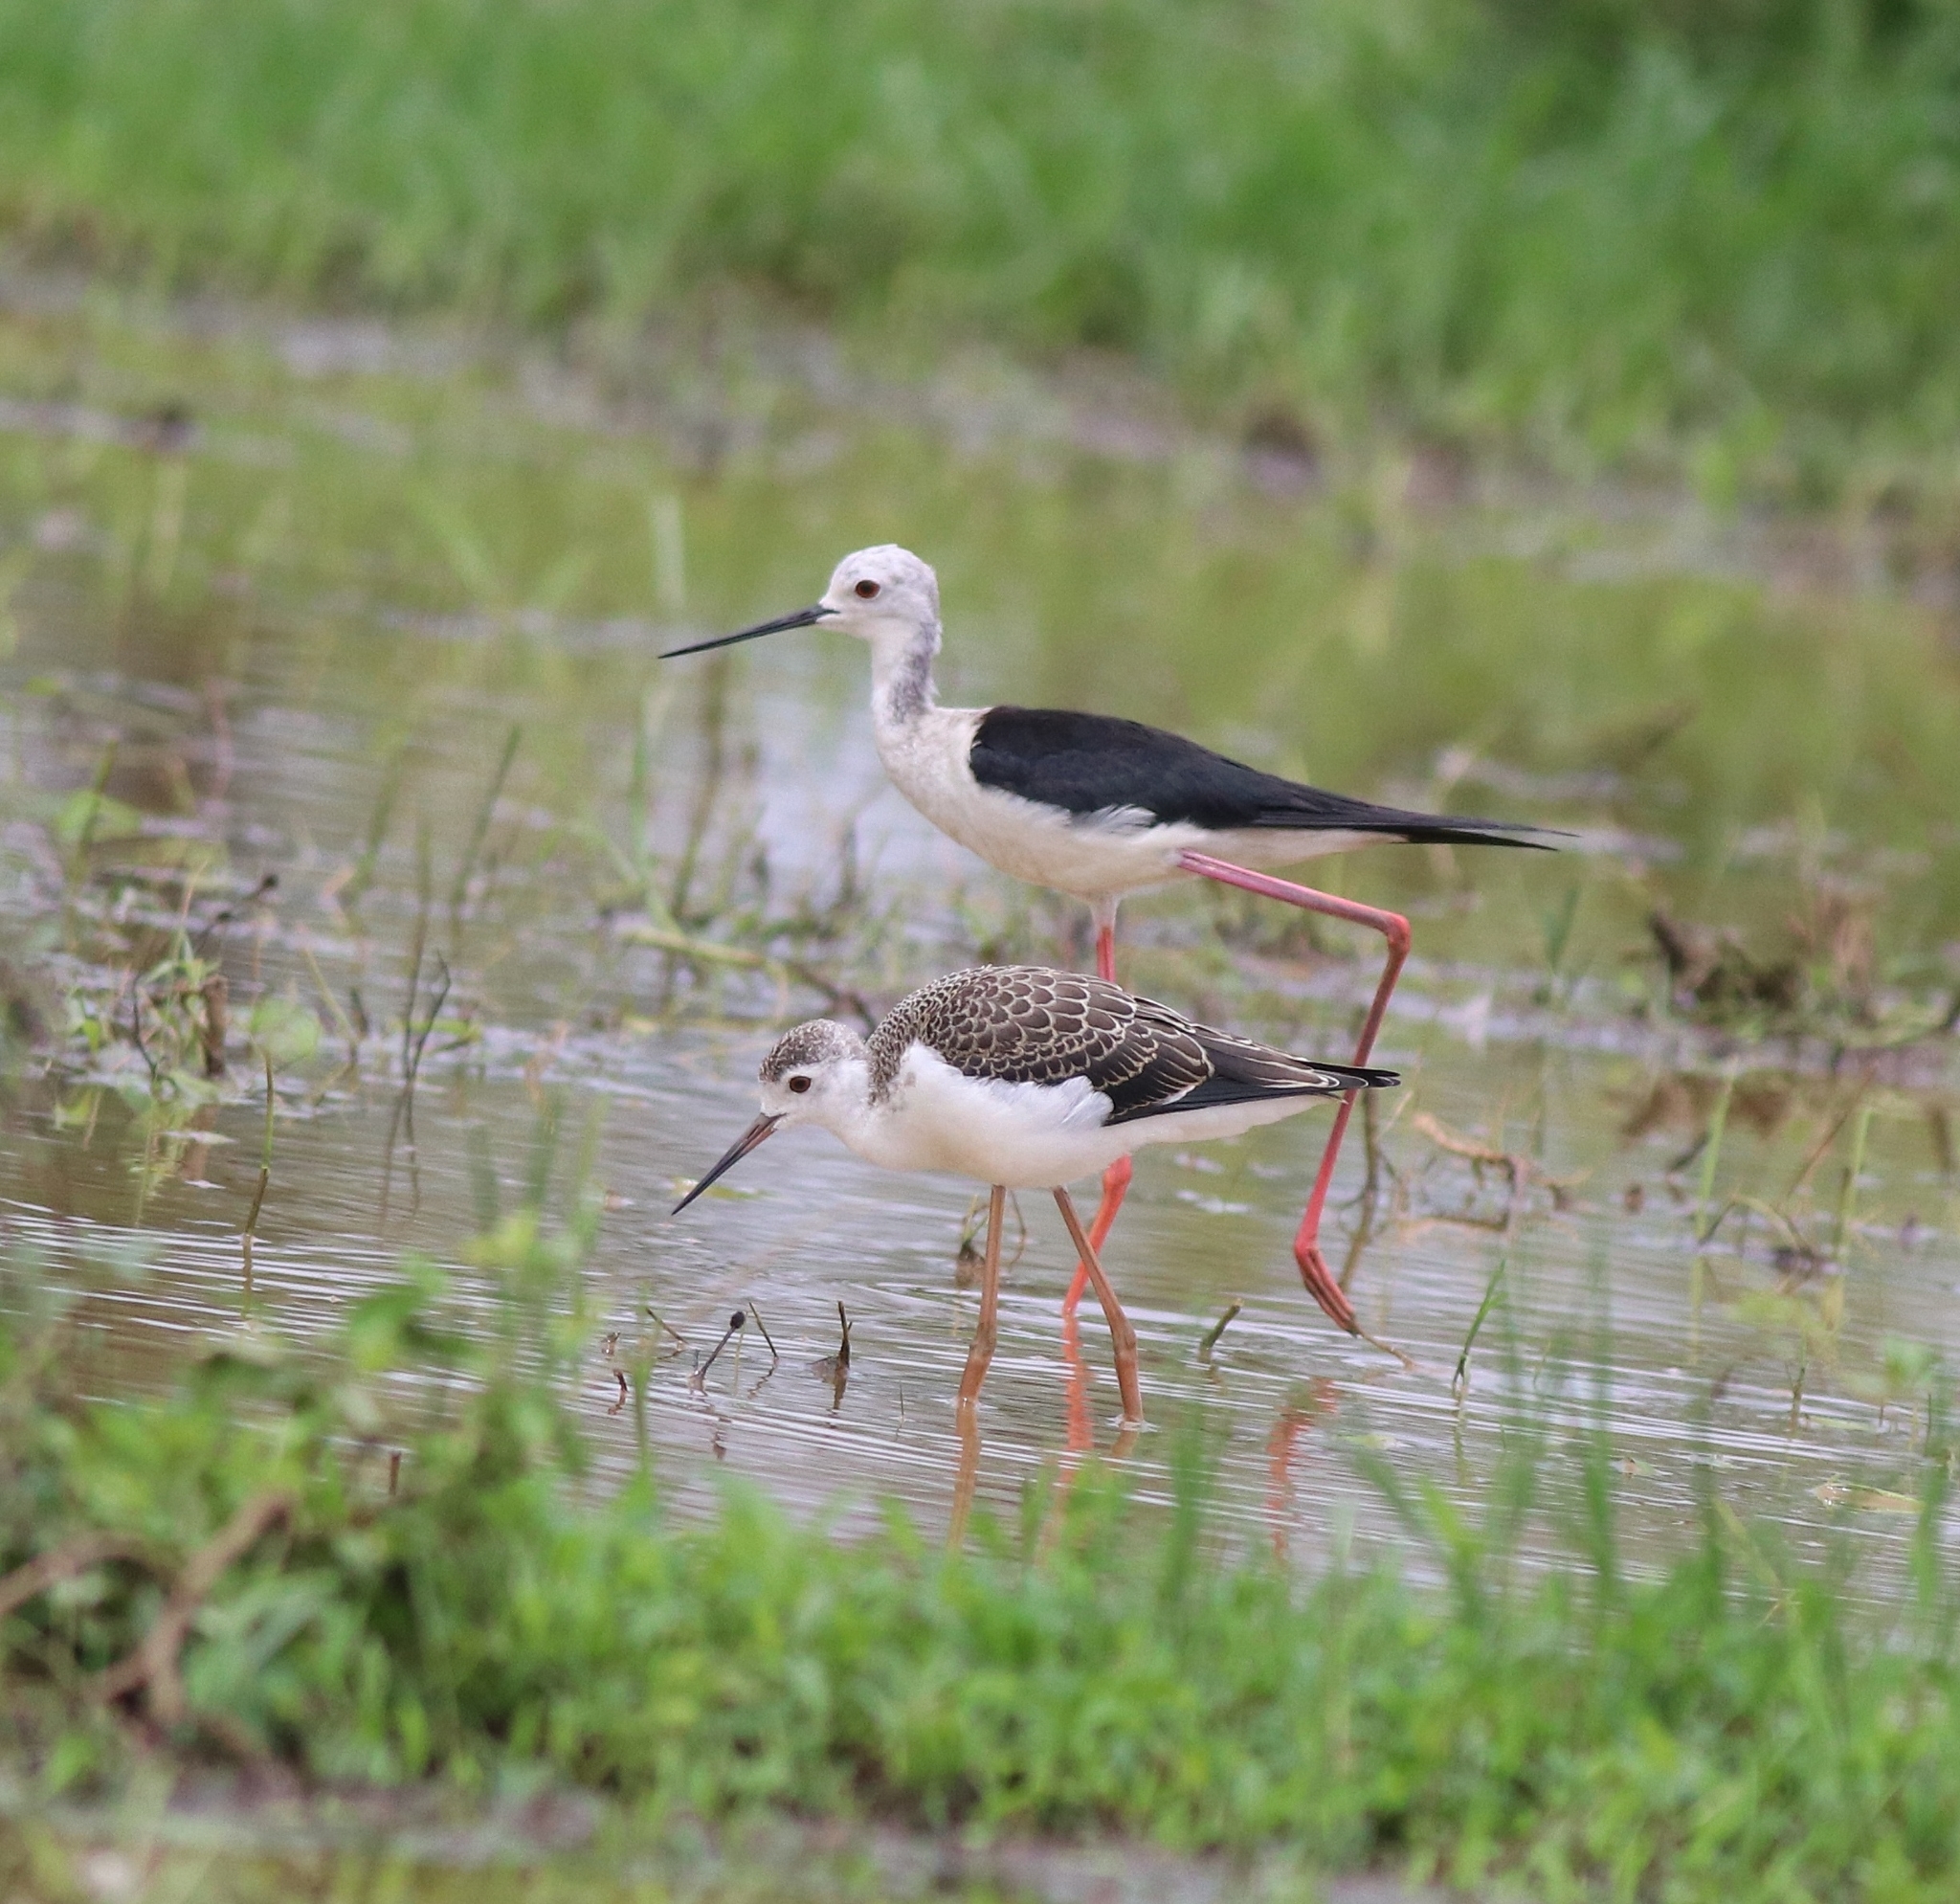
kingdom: Animalia
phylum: Chordata
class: Aves
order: Charadriiformes
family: Recurvirostridae
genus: Himantopus
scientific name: Himantopus himantopus
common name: Black-winged stilt
